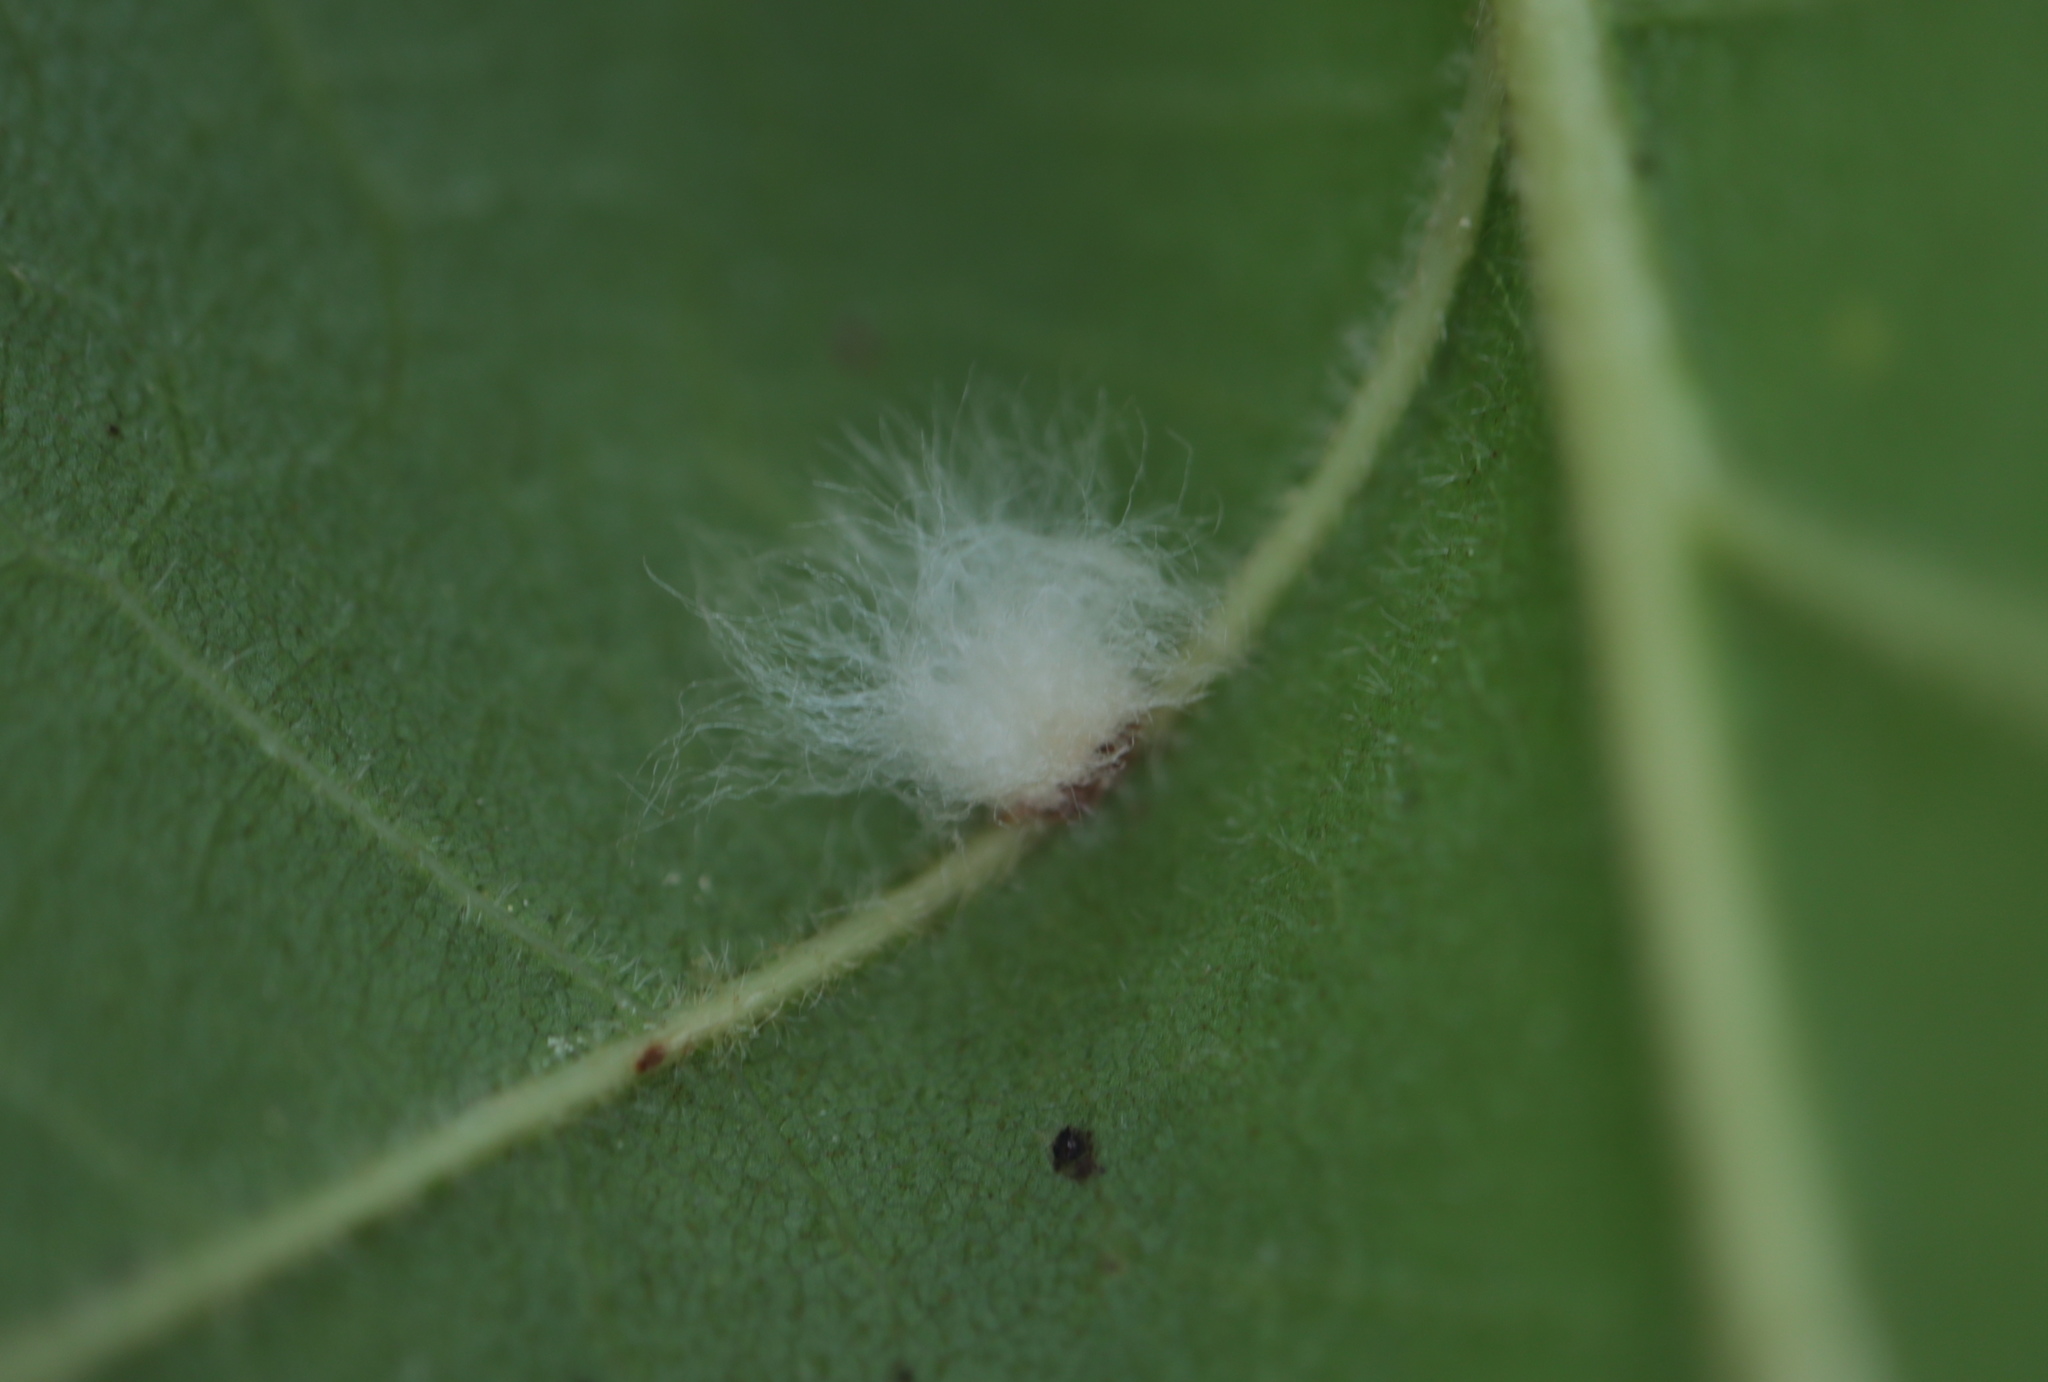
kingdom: Animalia
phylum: Arthropoda
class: Insecta
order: Hymenoptera
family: Cynipidae
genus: Andricus
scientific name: Andricus Druon ignotum
